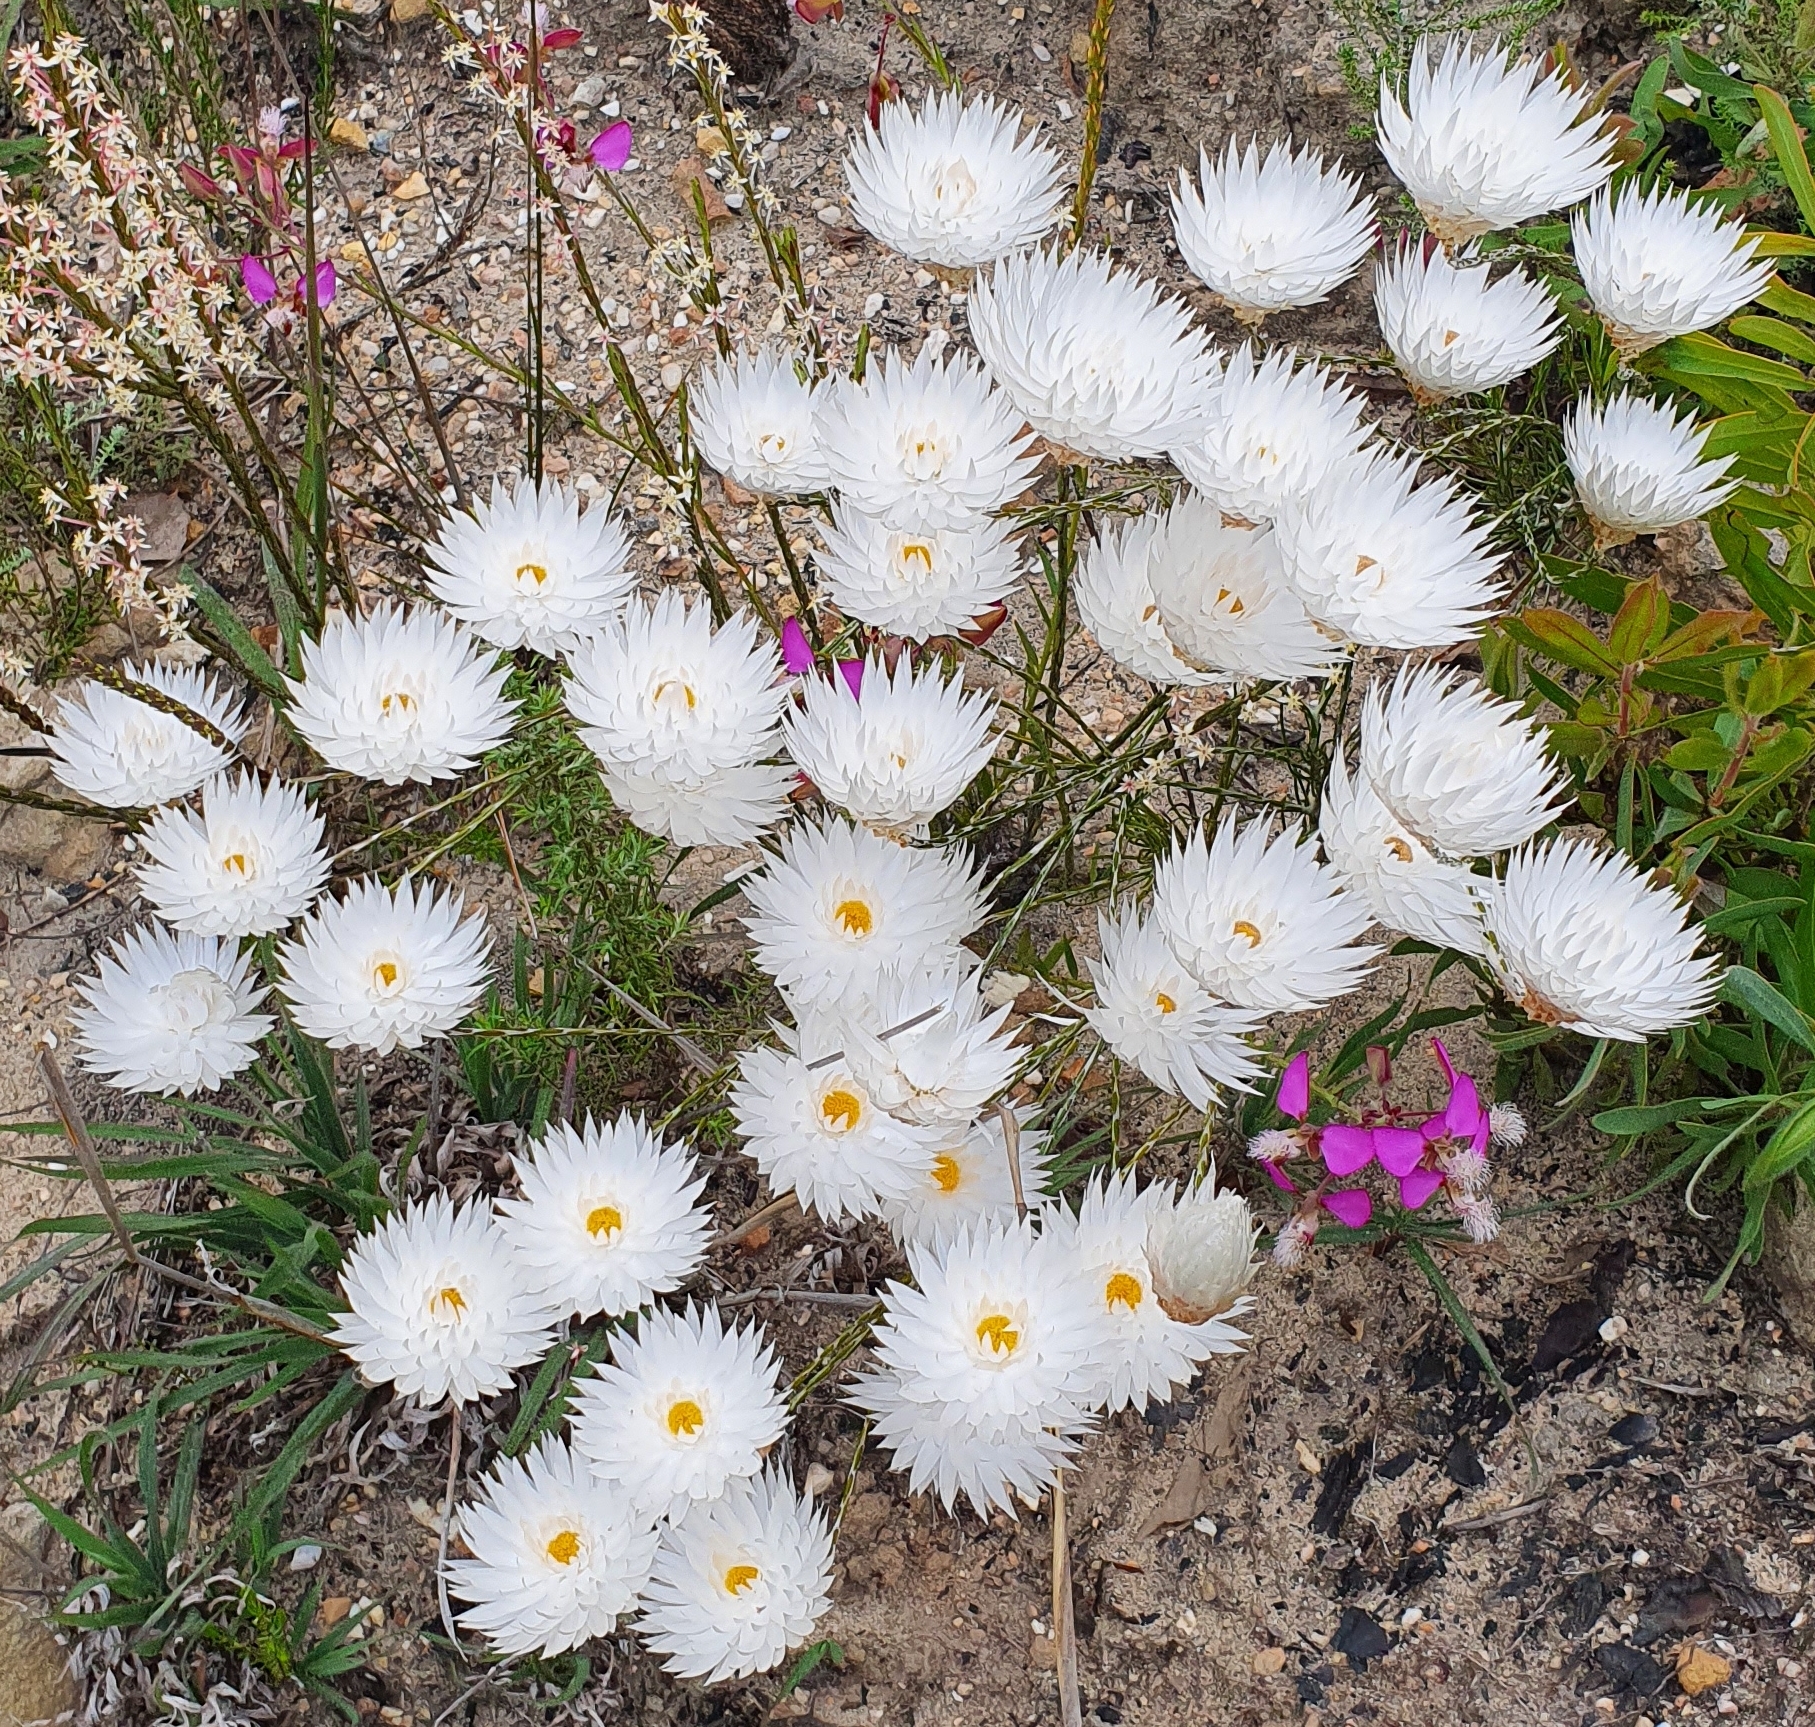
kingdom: Plantae
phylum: Tracheophyta
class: Magnoliopsida
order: Asterales
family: Asteraceae
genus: Edmondia
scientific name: Edmondia sesamoides
